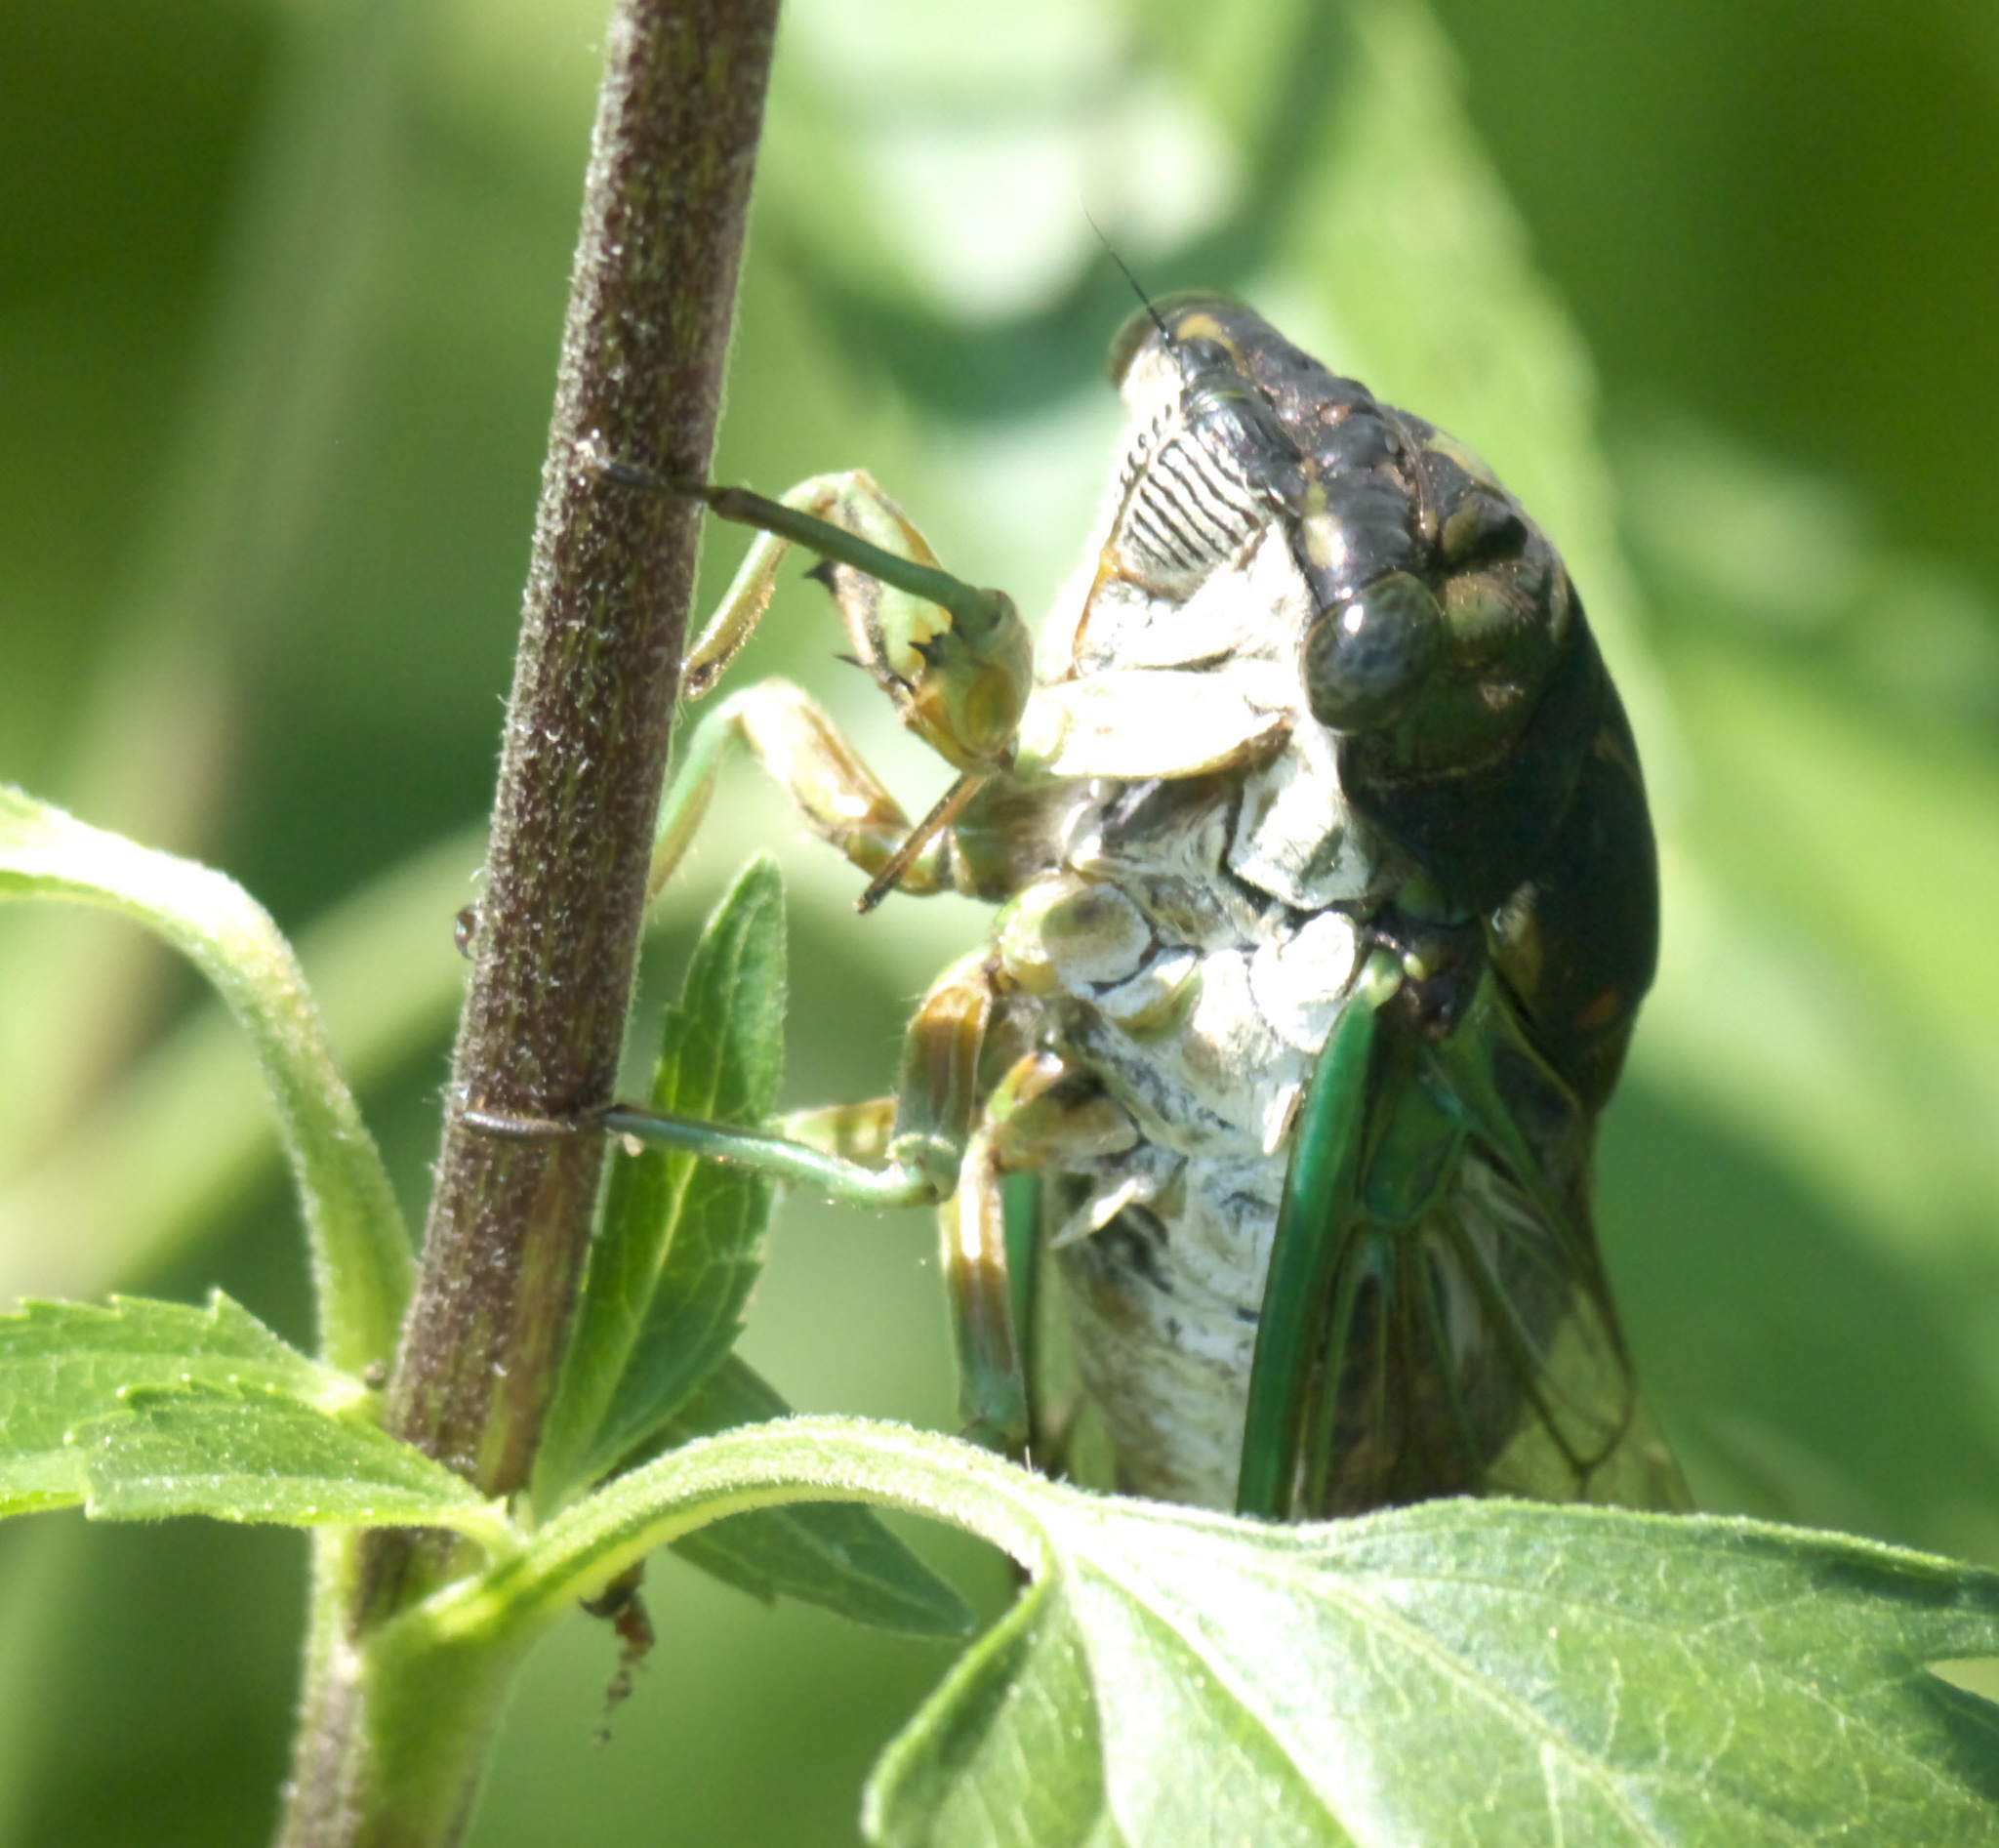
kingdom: Animalia
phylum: Arthropoda
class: Insecta
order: Hemiptera
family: Cicadidae
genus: Neotibicen
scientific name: Neotibicen tibicen
